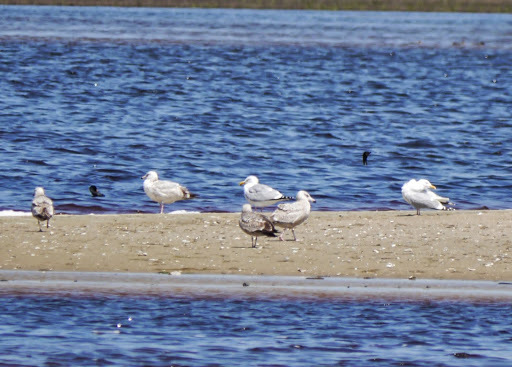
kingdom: Animalia
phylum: Chordata
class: Aves
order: Charadriiformes
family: Laridae
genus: Larus
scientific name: Larus argentatus
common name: Herring gull
